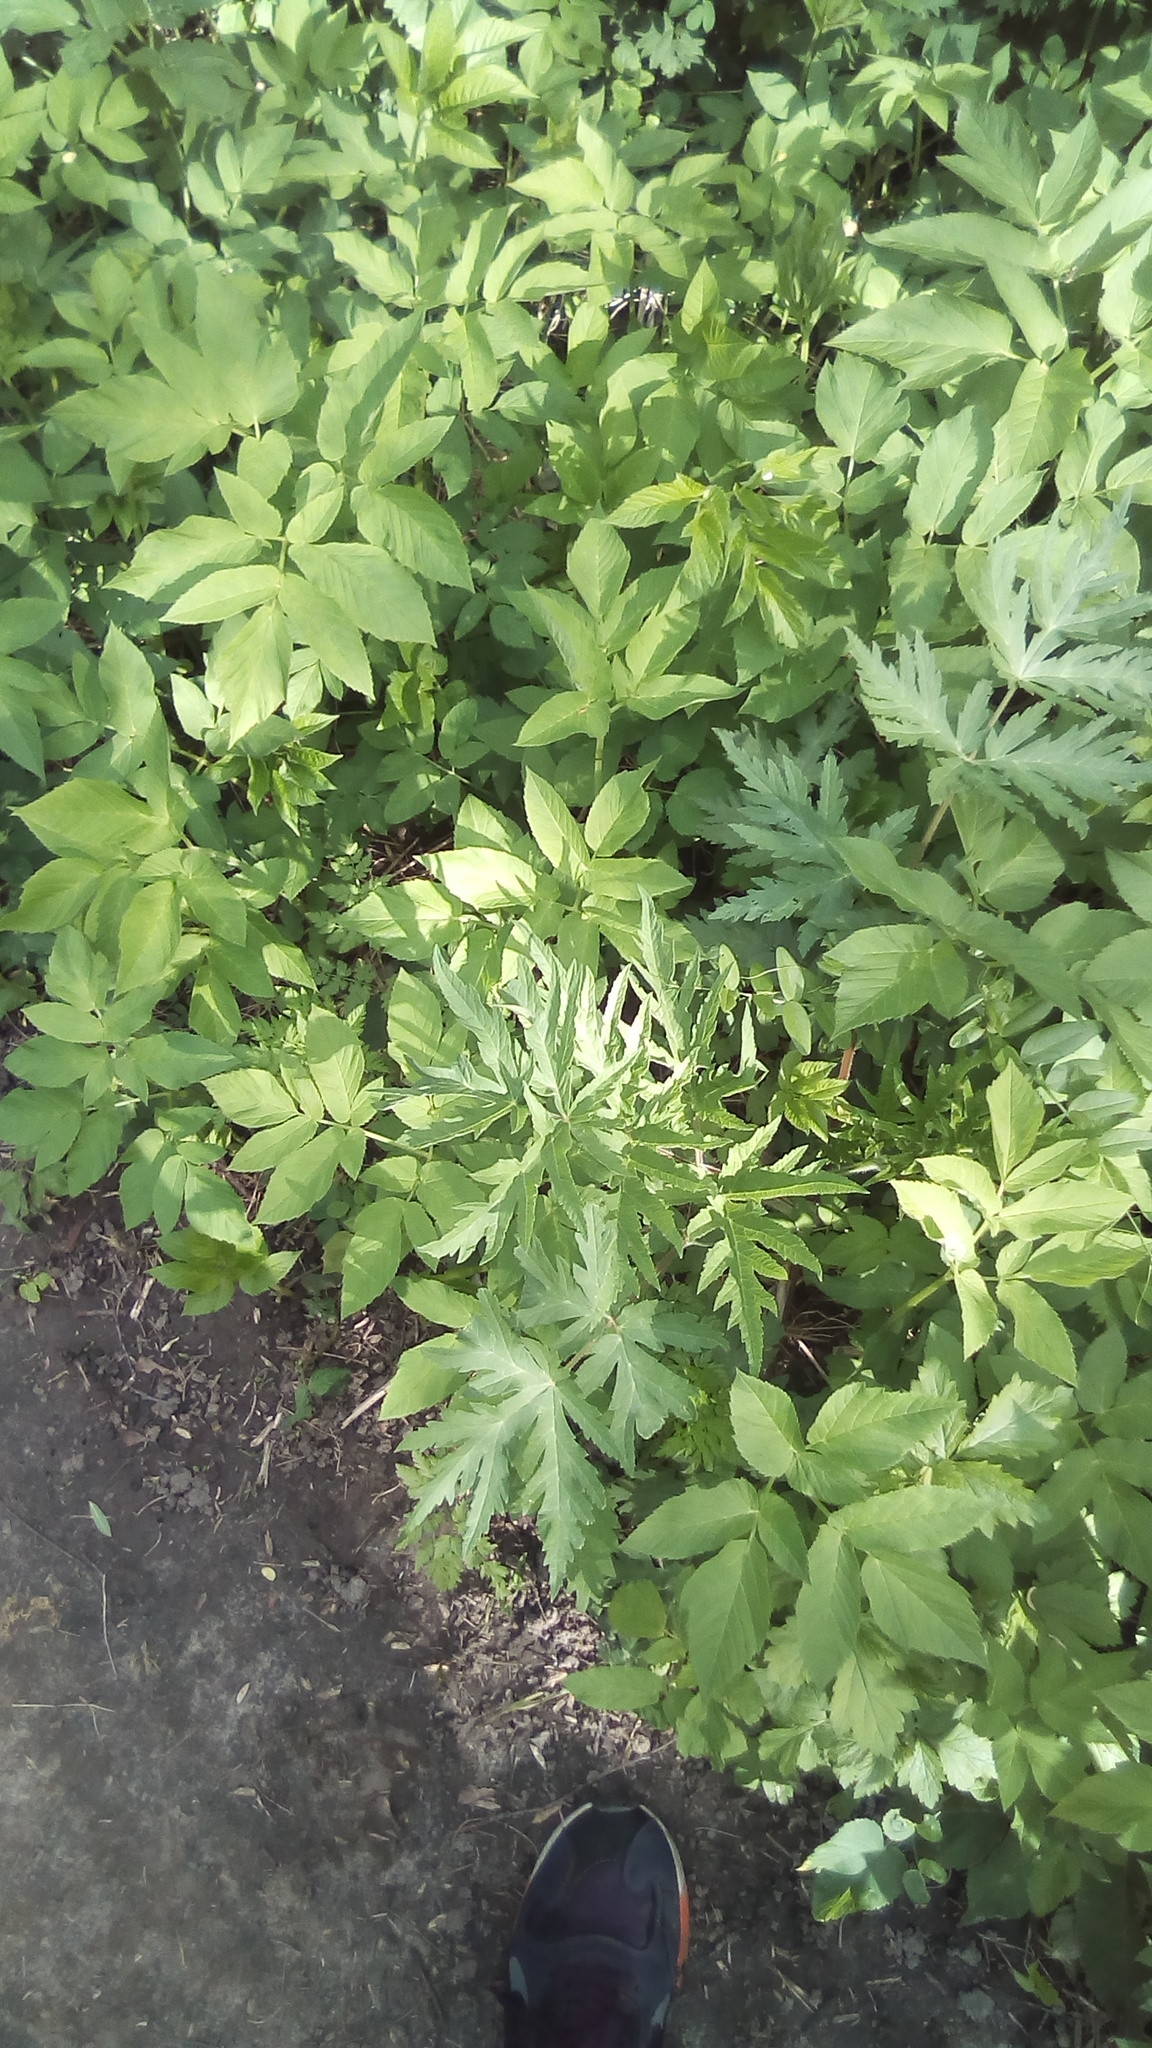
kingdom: Plantae
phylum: Tracheophyta
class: Magnoliopsida
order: Apiales
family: Apiaceae
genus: Heracleum
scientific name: Heracleum sphondylium
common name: Hogweed
